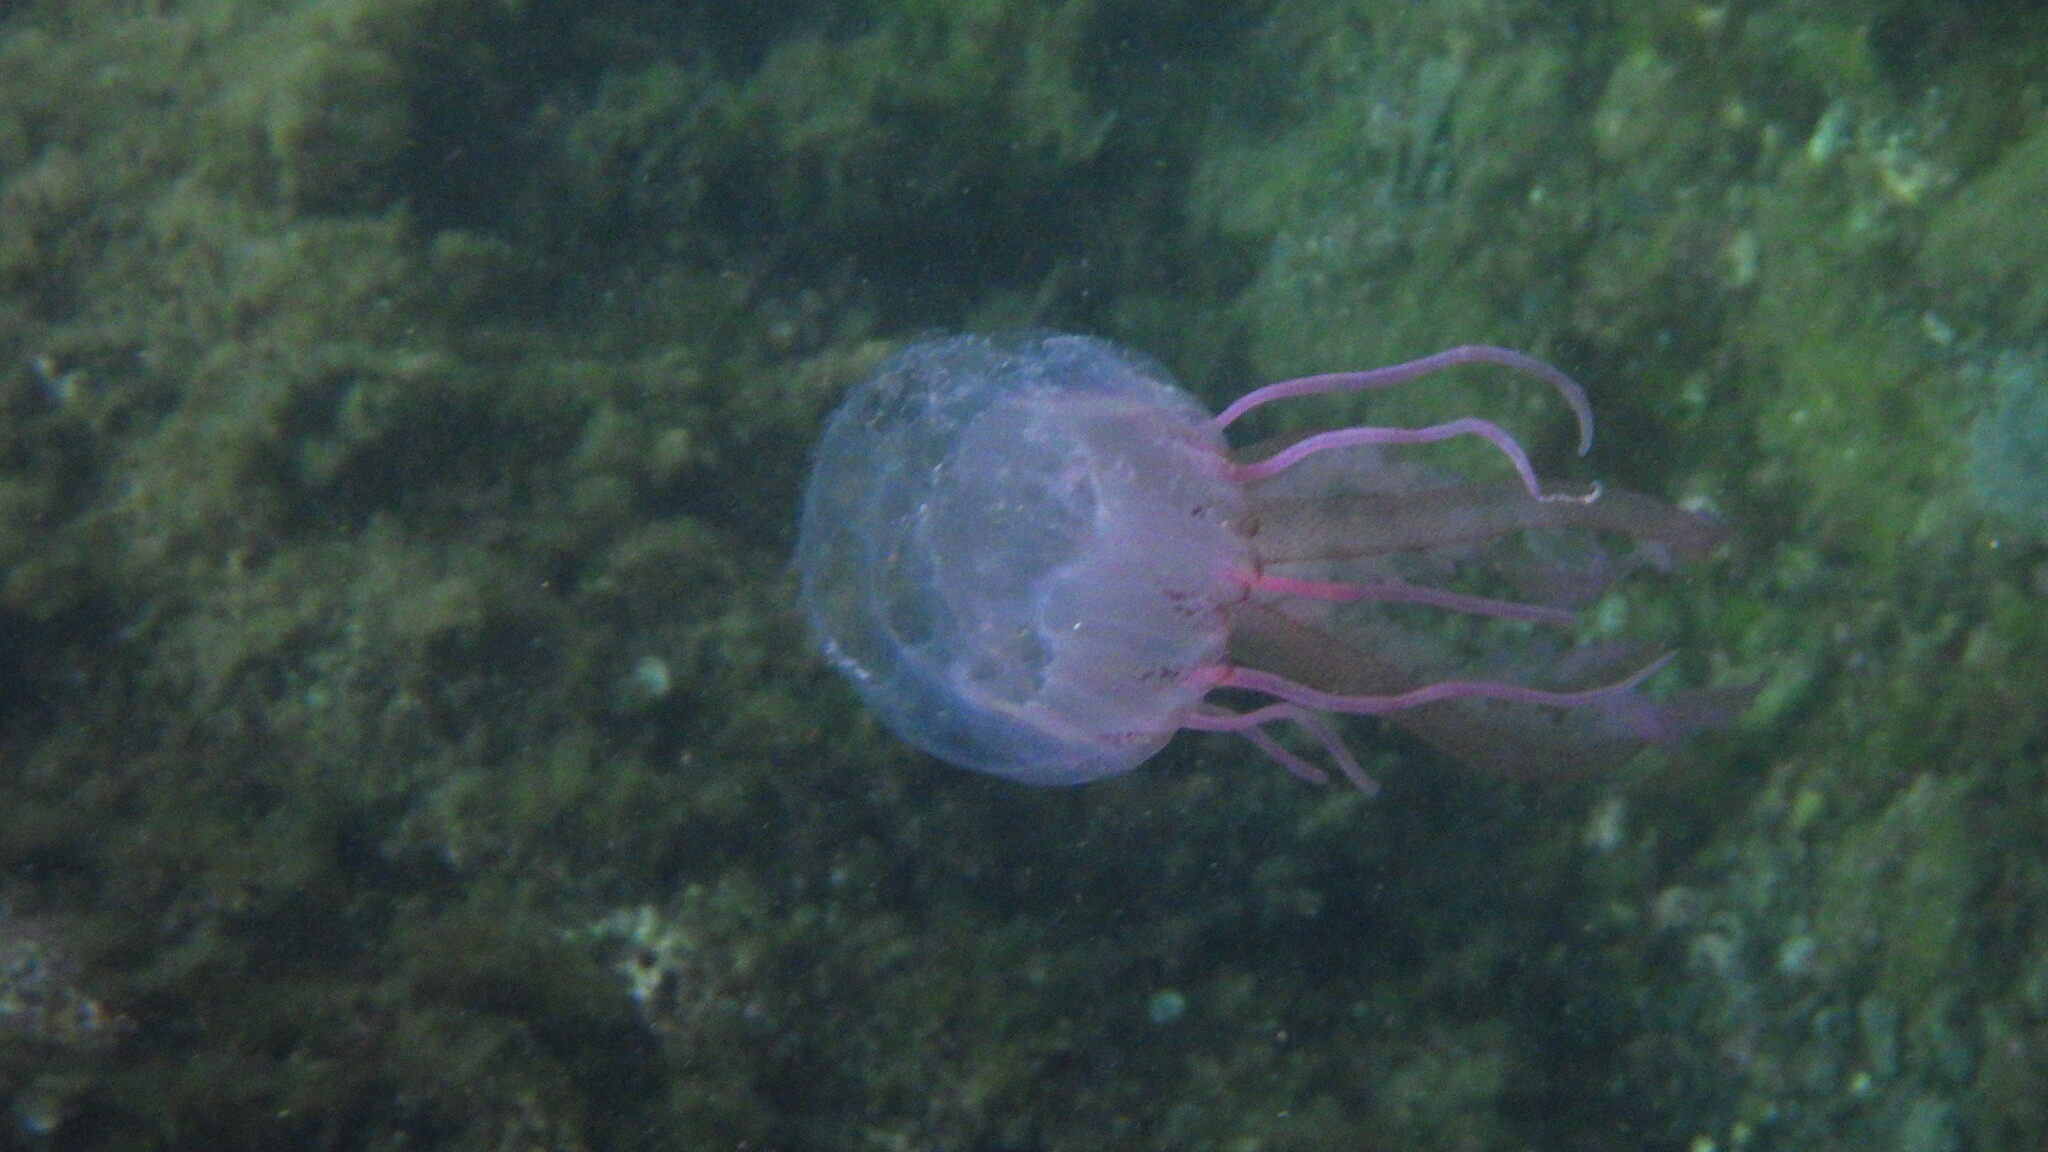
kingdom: Animalia
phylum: Cnidaria
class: Scyphozoa
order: Semaeostomeae
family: Pelagiidae
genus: Pelagia
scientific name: Pelagia noctiluca
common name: Mauve stinger
